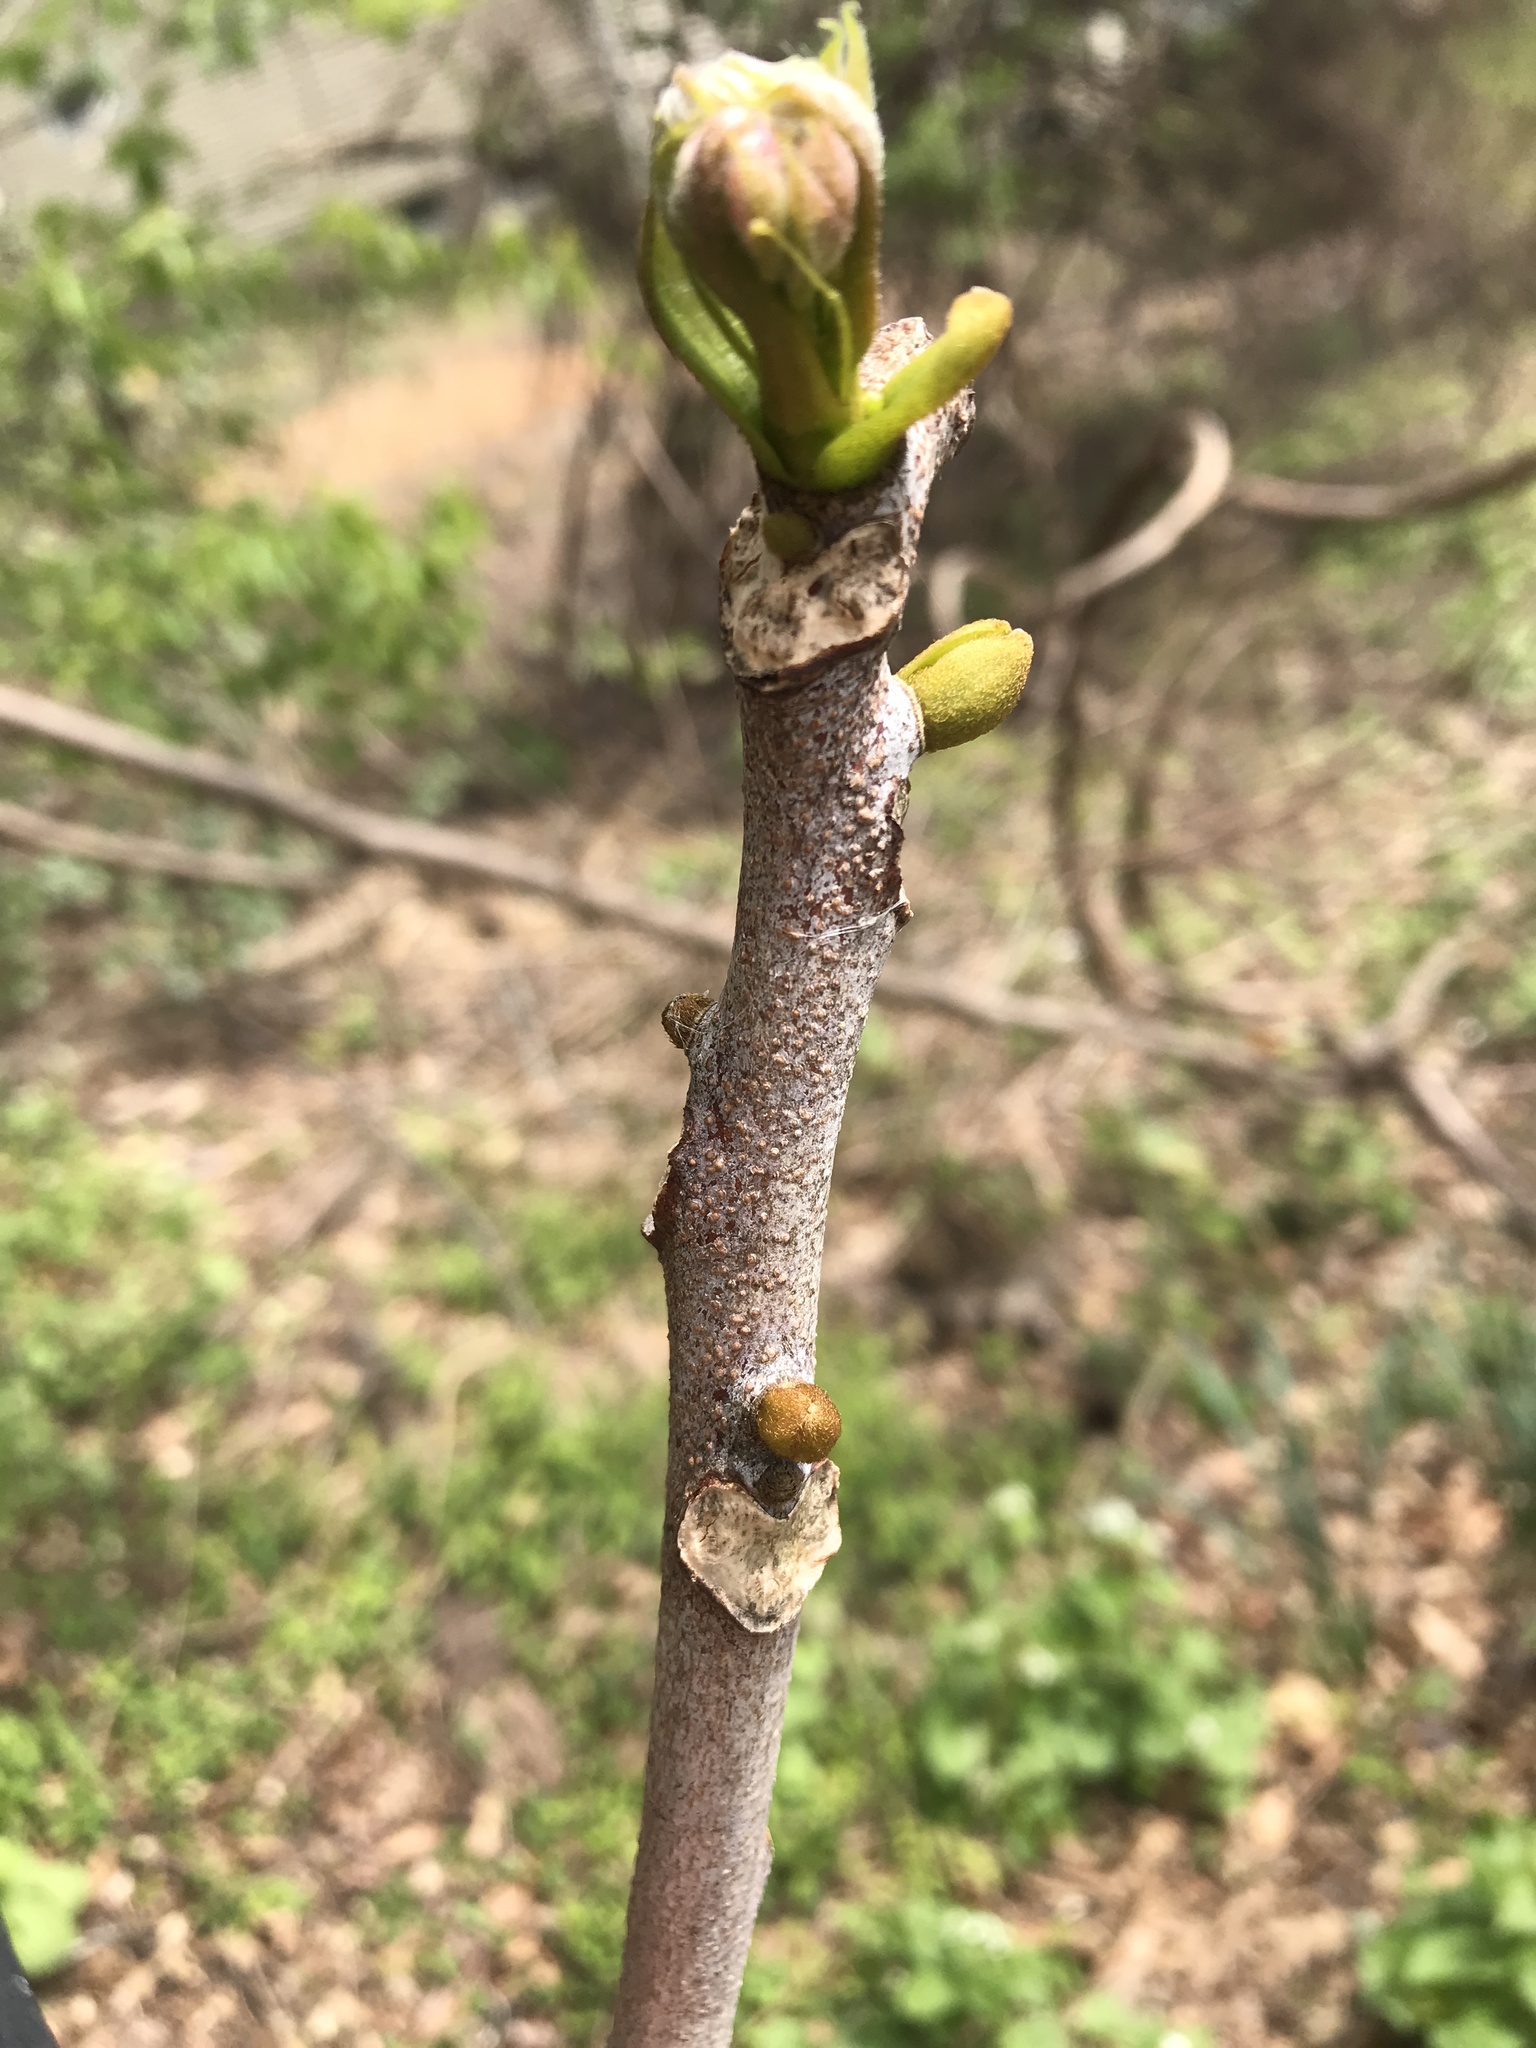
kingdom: Plantae
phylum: Tracheophyta
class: Magnoliopsida
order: Fabales
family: Fabaceae
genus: Gymnocladus
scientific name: Gymnocladus dioicus
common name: Kentucky coffee-tree
